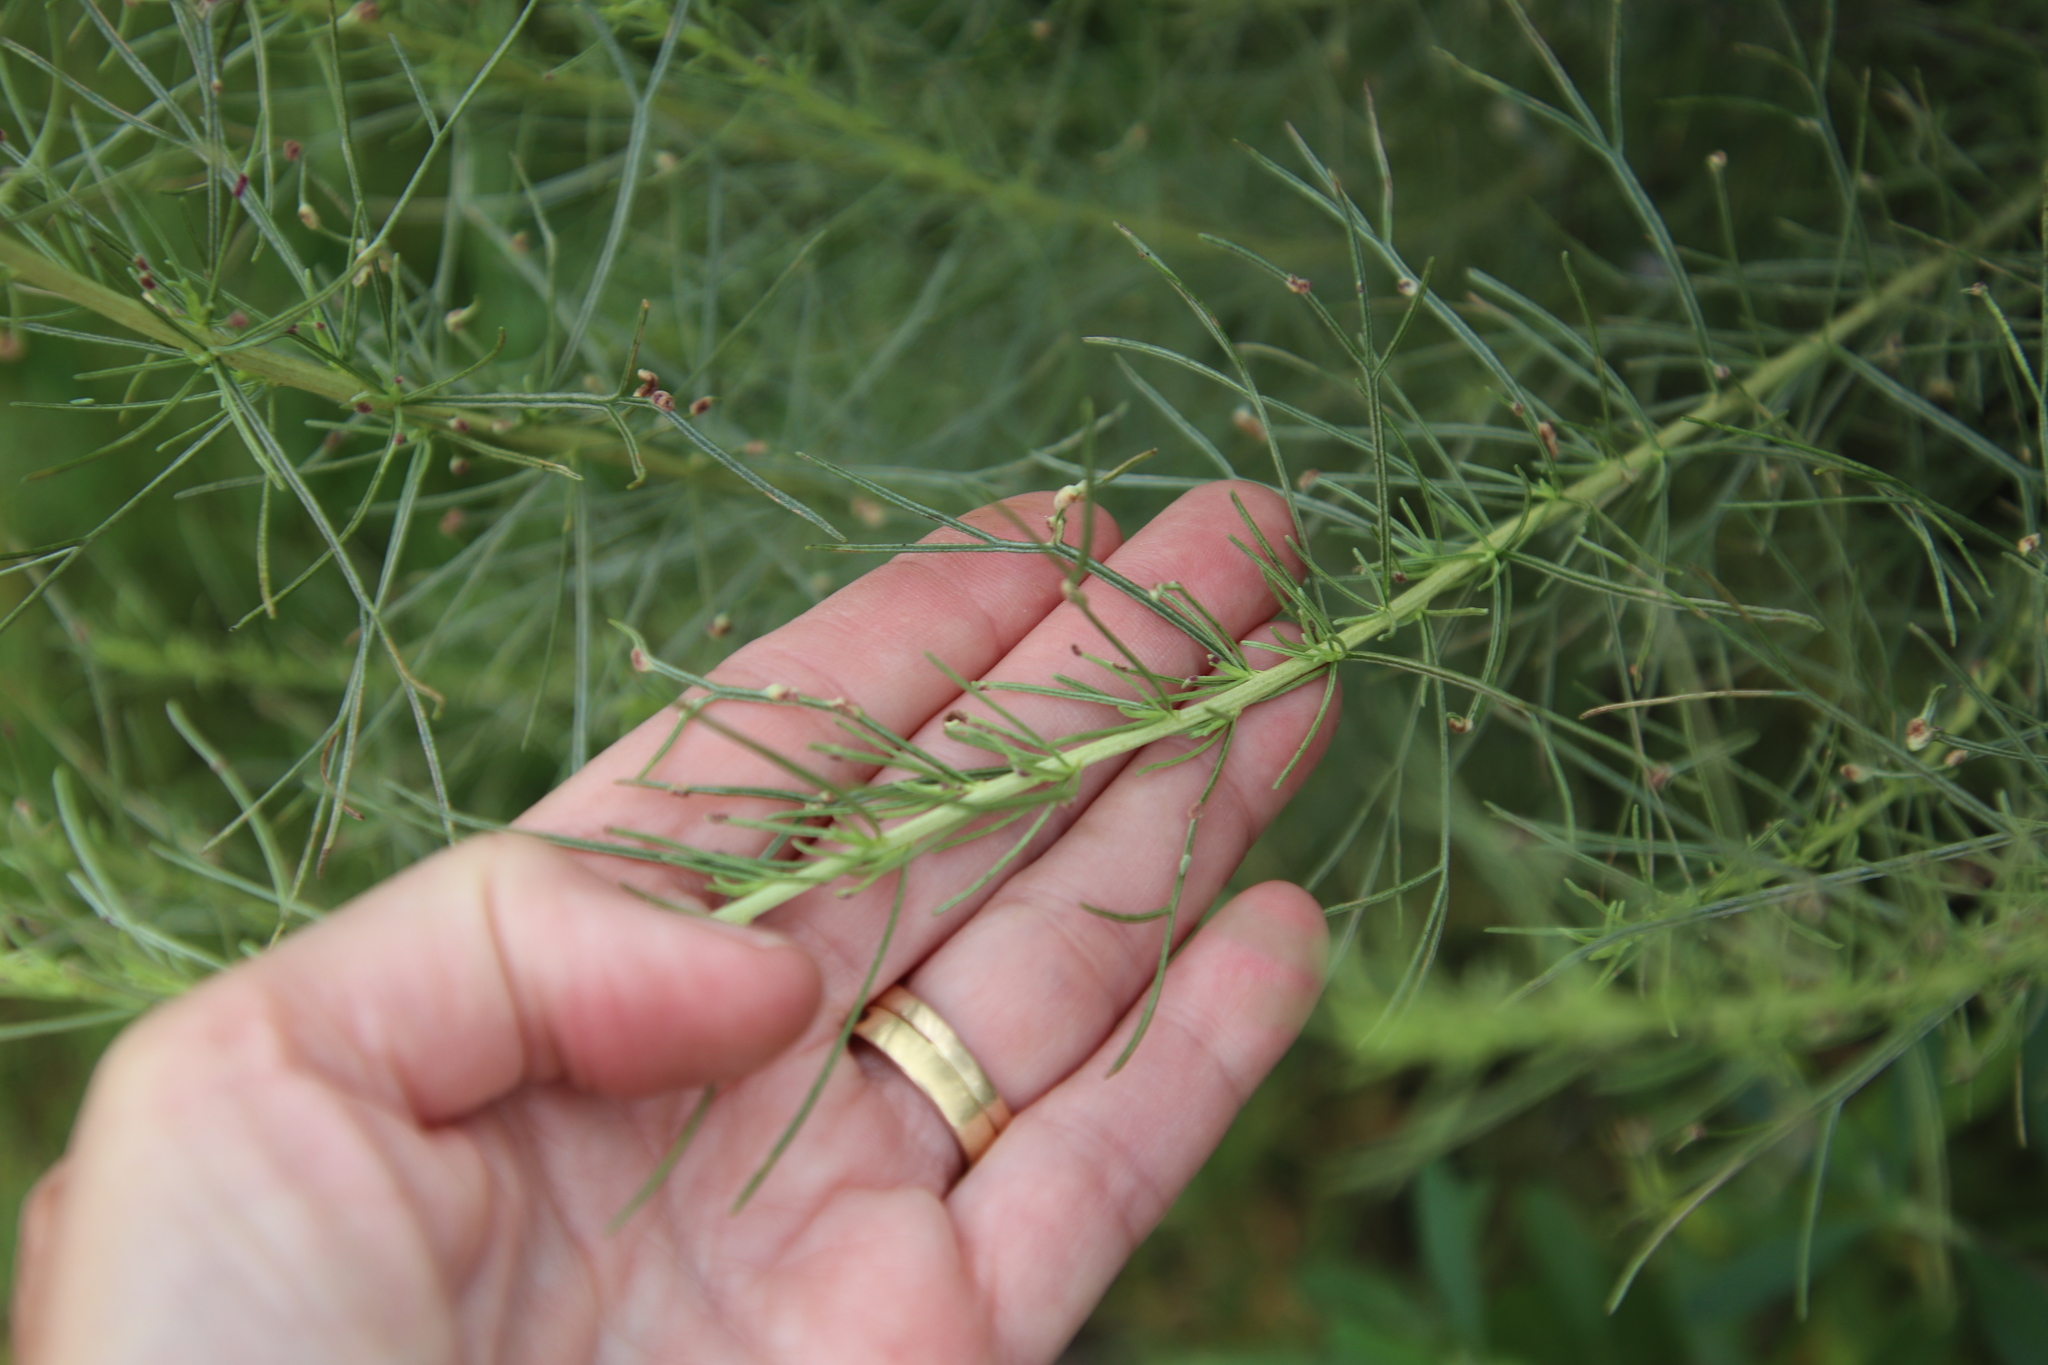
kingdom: Plantae
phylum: Tracheophyta
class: Magnoliopsida
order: Asterales
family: Asteraceae
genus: Artemisia
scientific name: Artemisia californica
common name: California sagebrush
